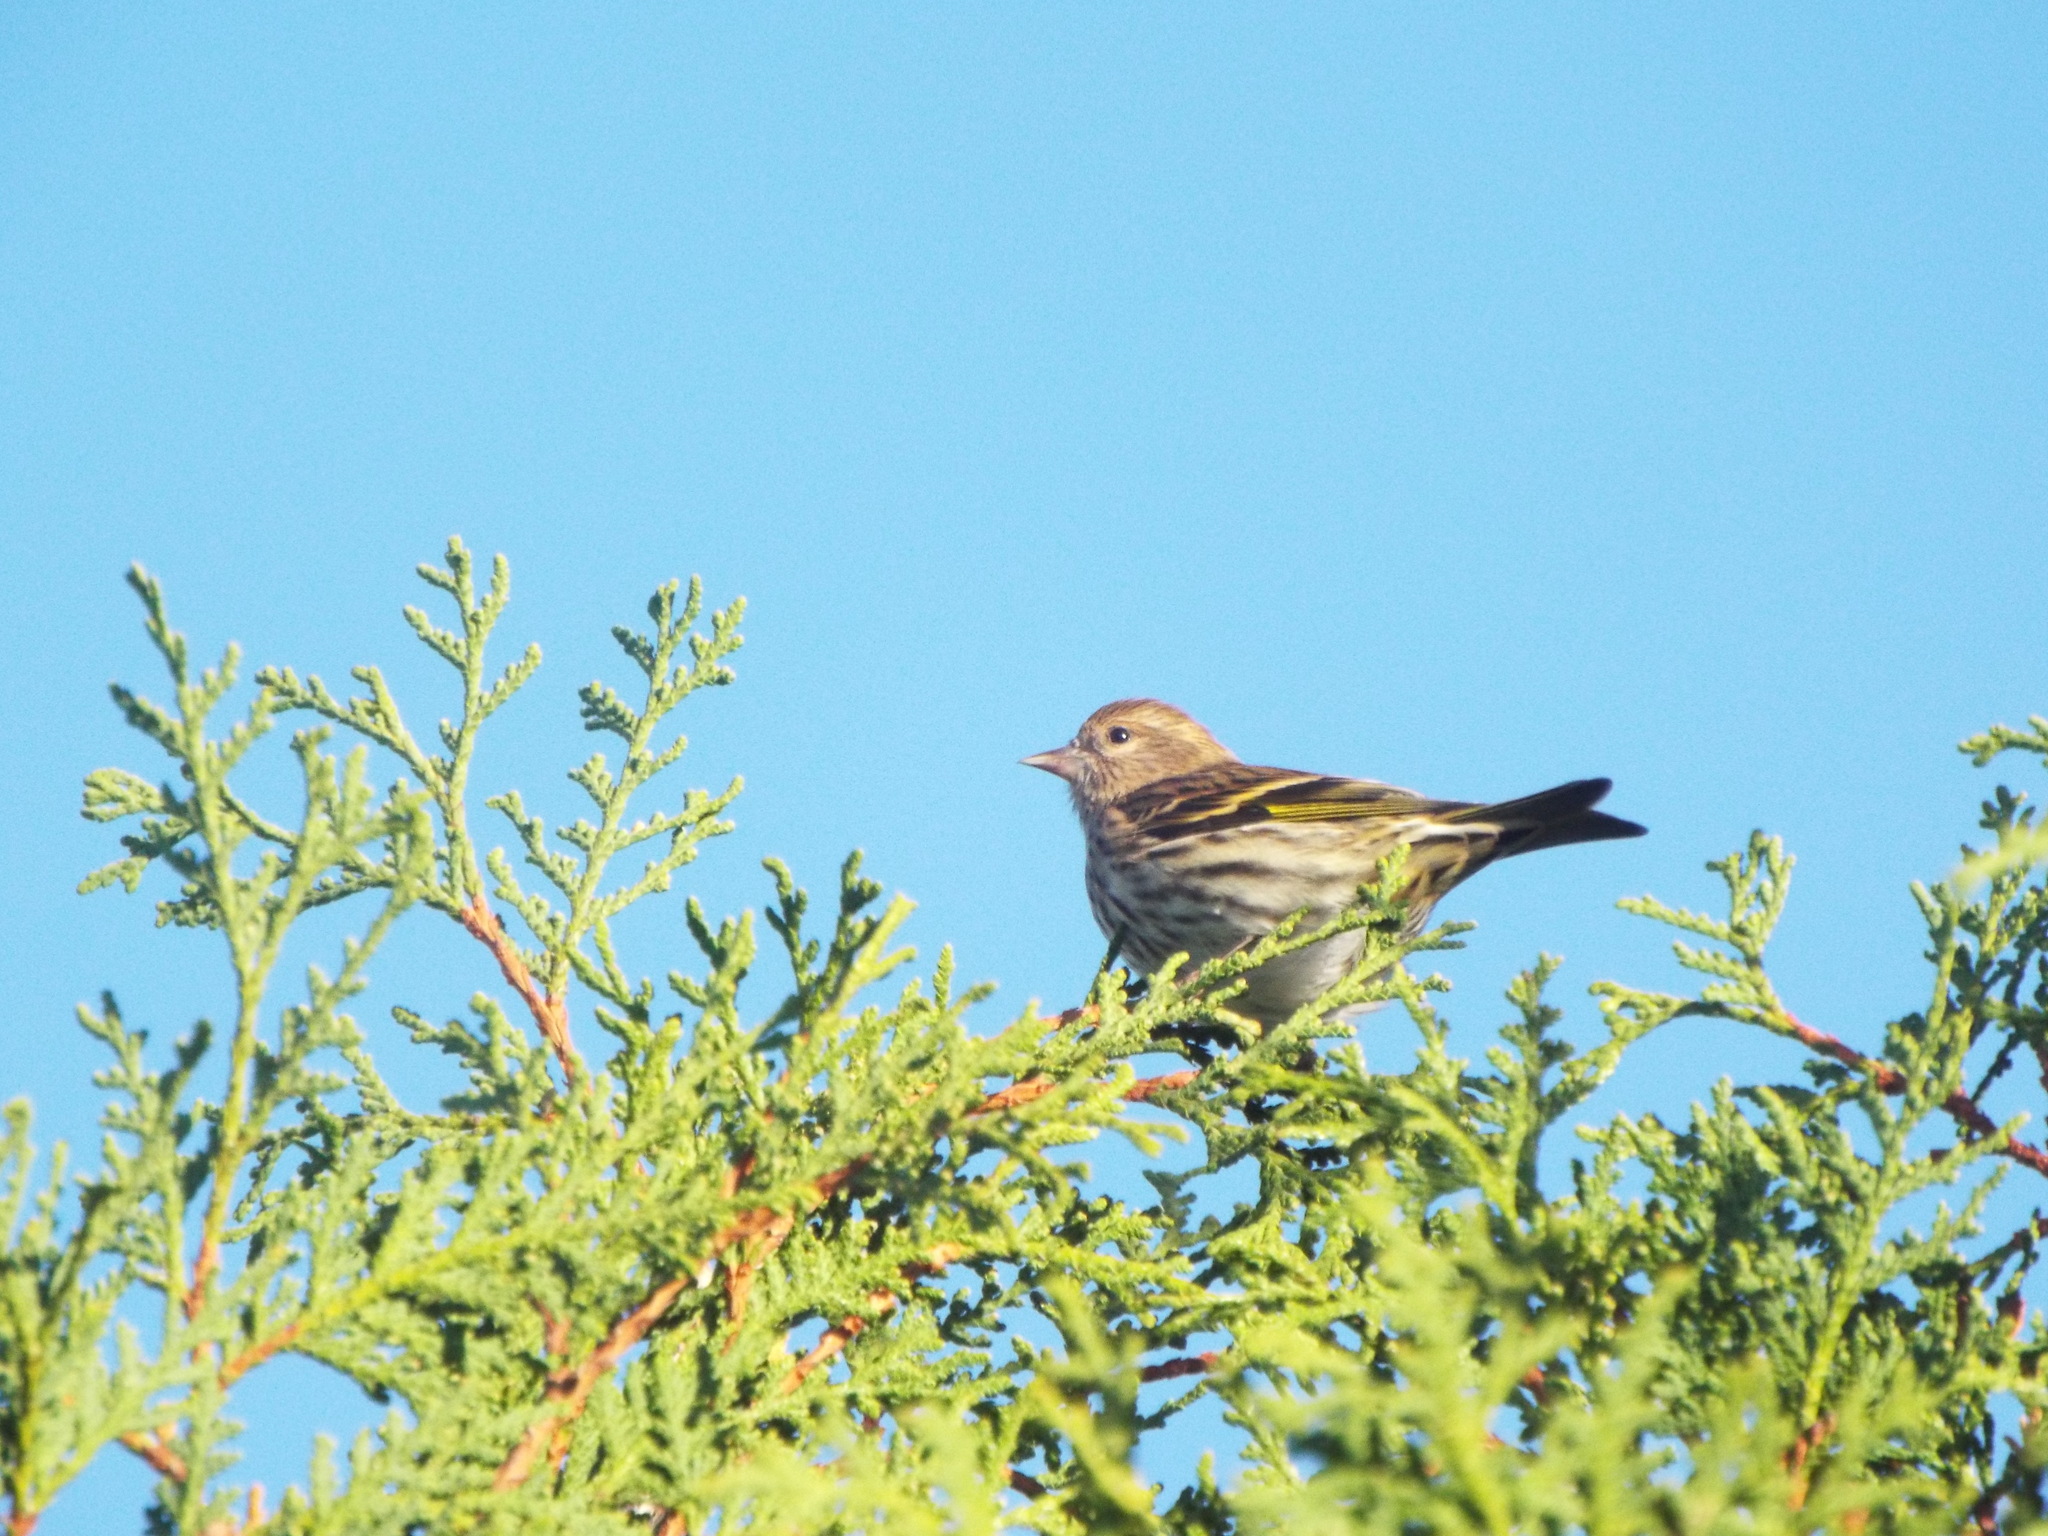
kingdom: Animalia
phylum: Chordata
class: Aves
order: Passeriformes
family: Fringillidae
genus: Spinus
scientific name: Spinus pinus
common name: Pine siskin
